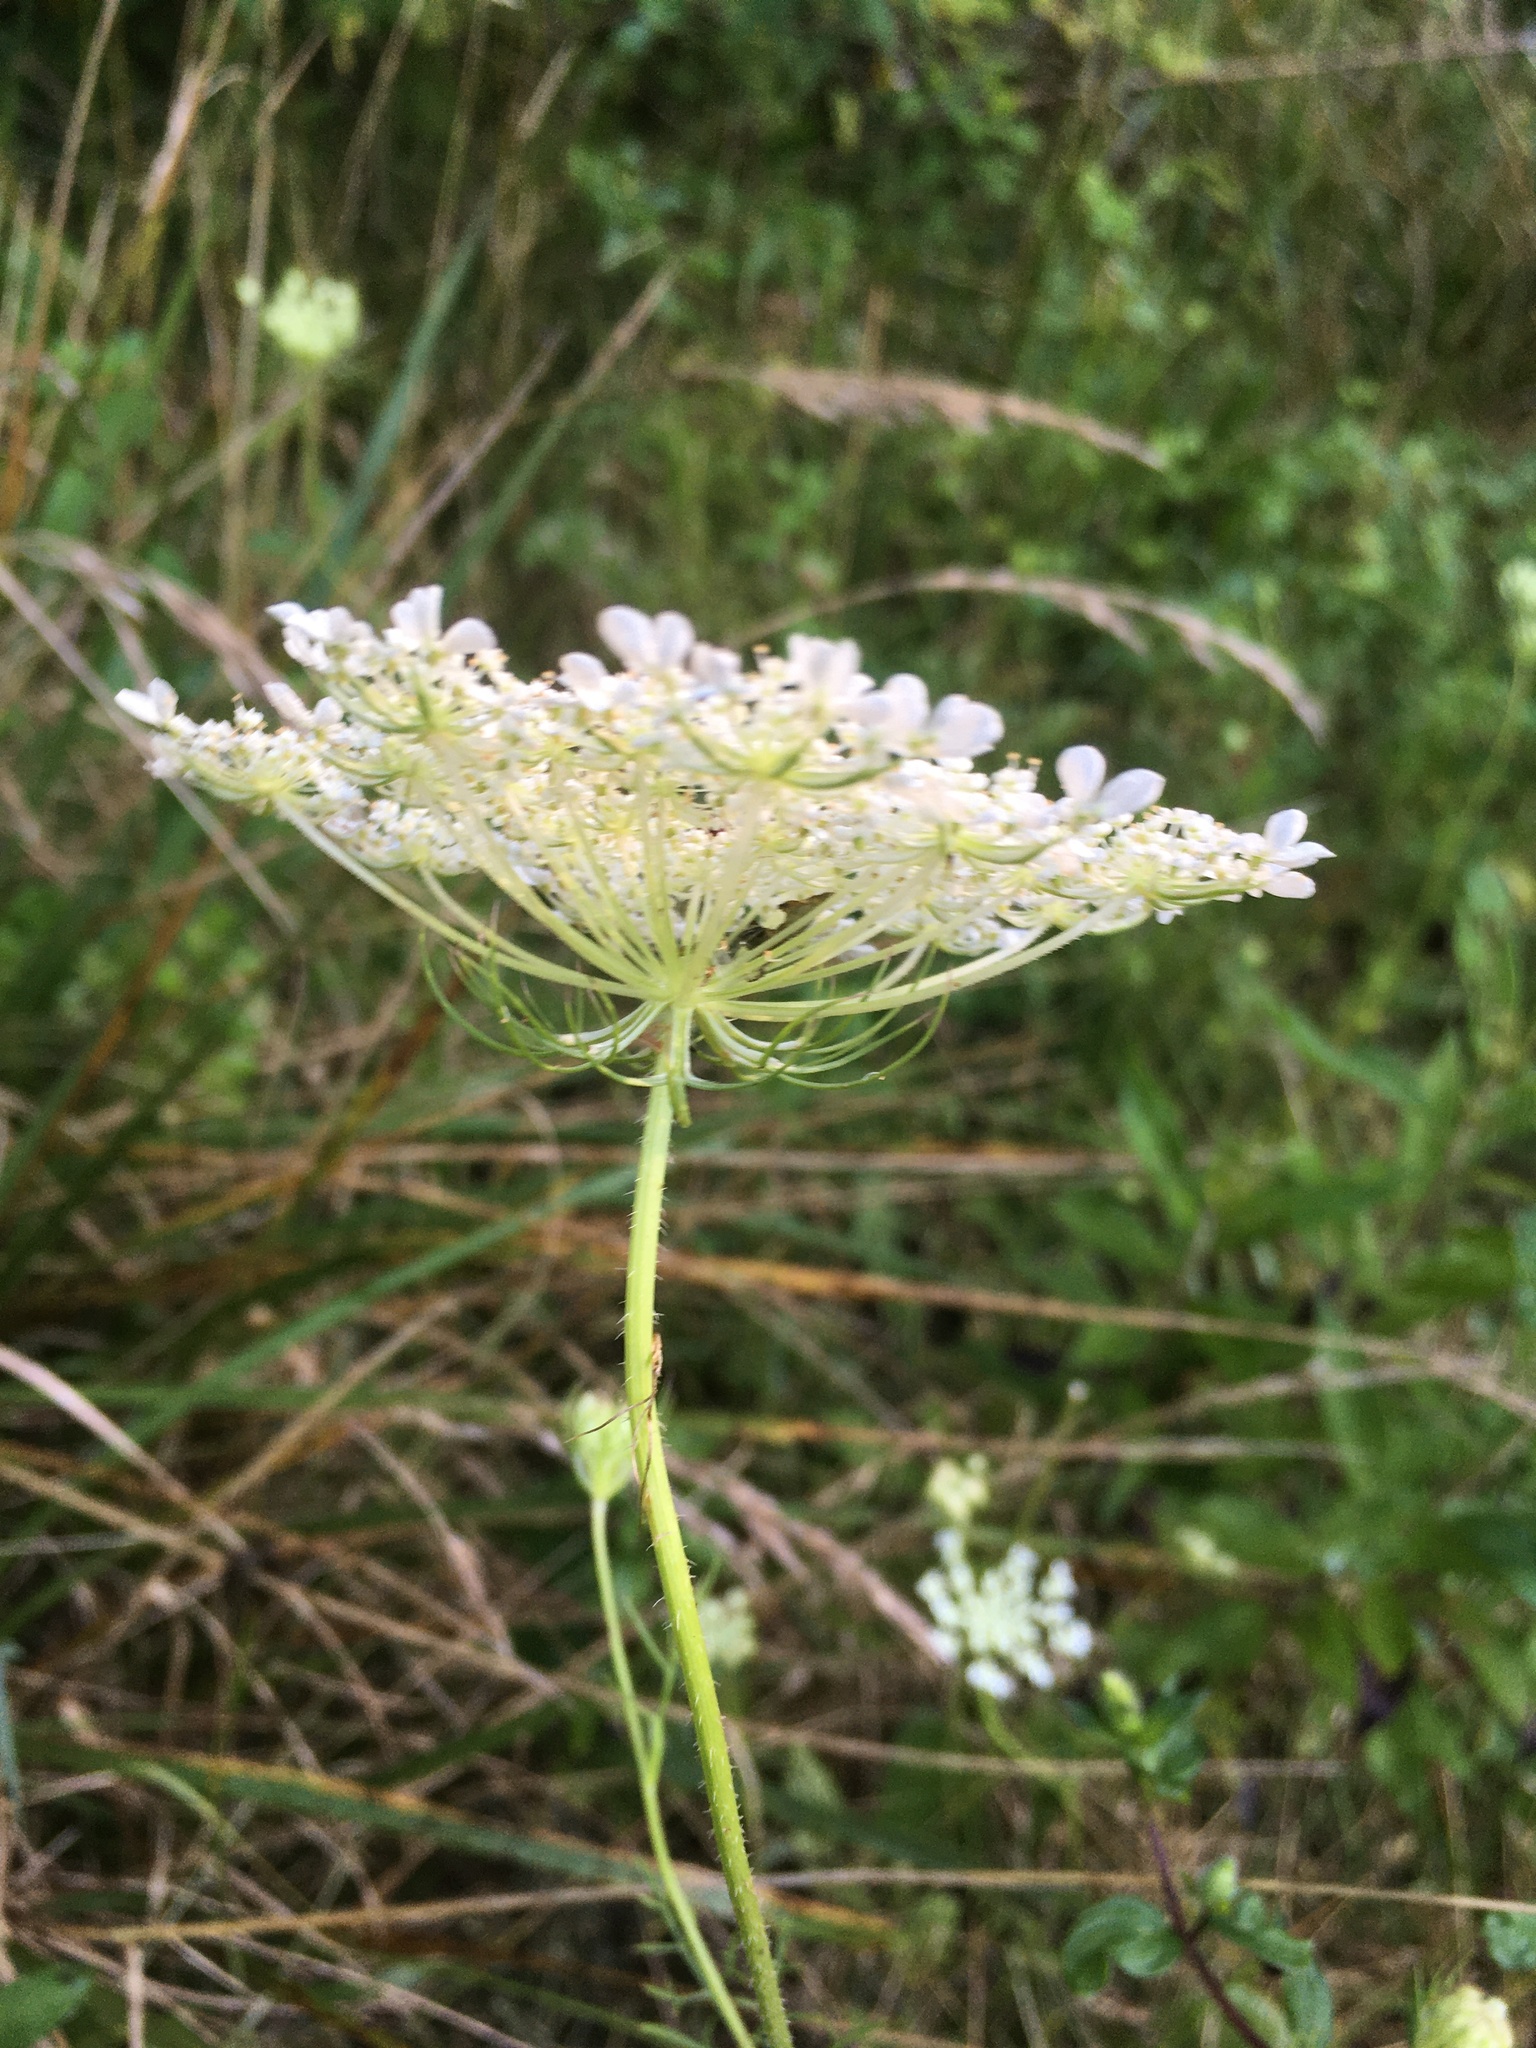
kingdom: Plantae
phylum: Tracheophyta
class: Magnoliopsida
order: Apiales
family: Apiaceae
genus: Daucus
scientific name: Daucus carota
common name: Wild carrot
